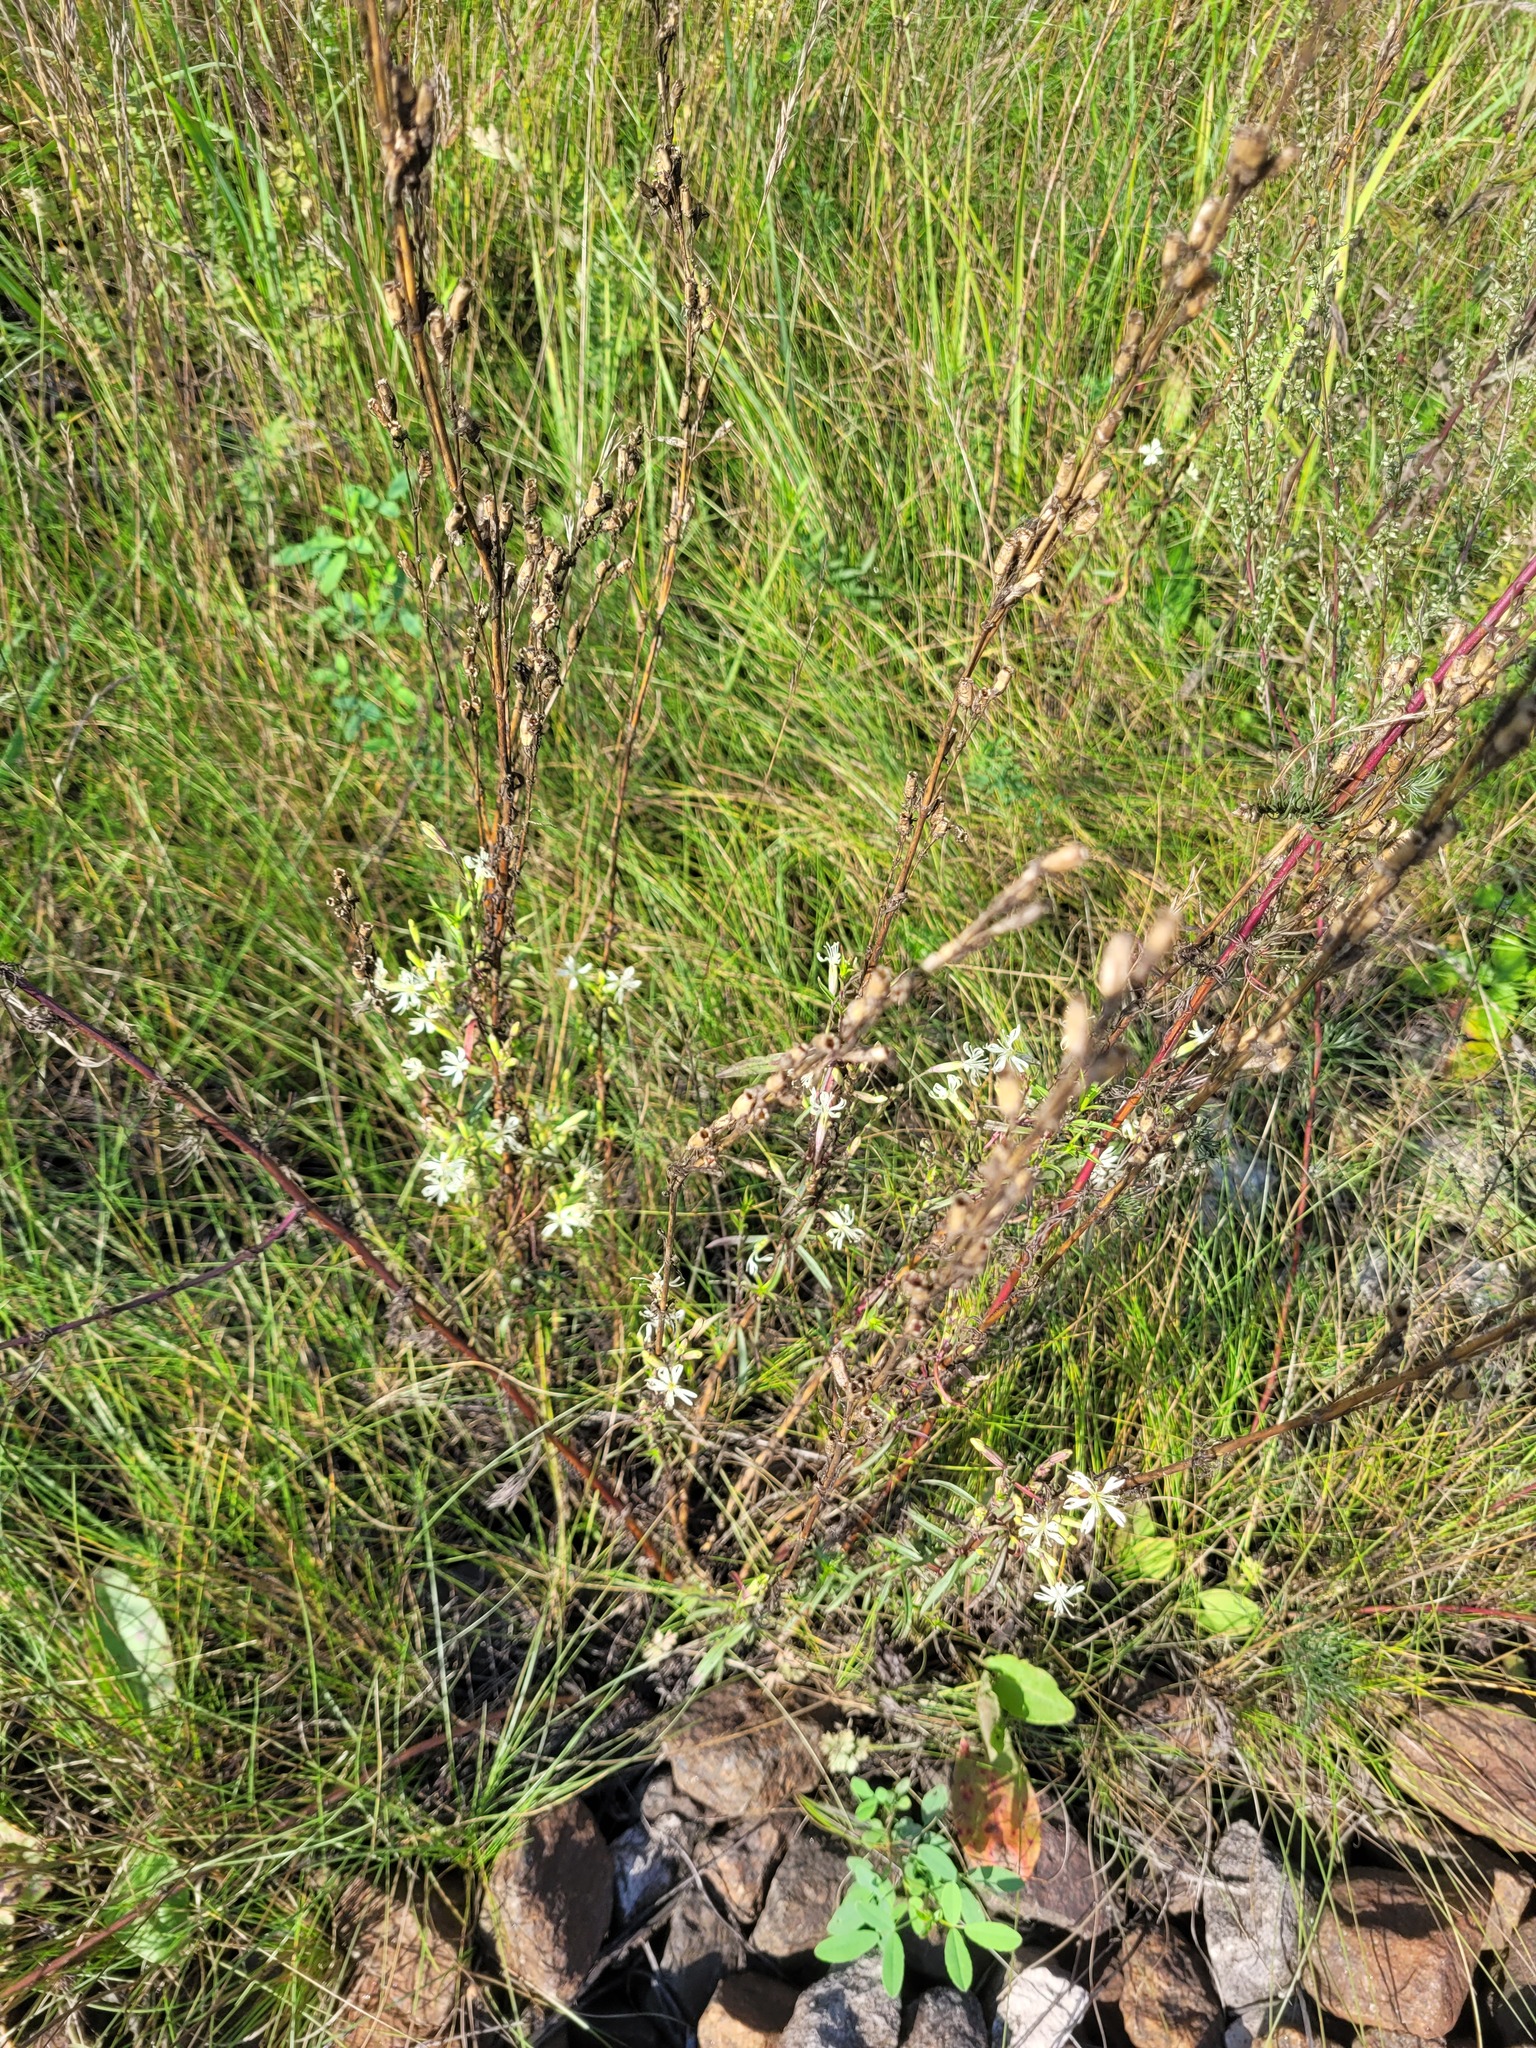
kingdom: Plantae
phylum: Tracheophyta
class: Magnoliopsida
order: Caryophyllales
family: Caryophyllaceae
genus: Silene
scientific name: Silene tatarica
